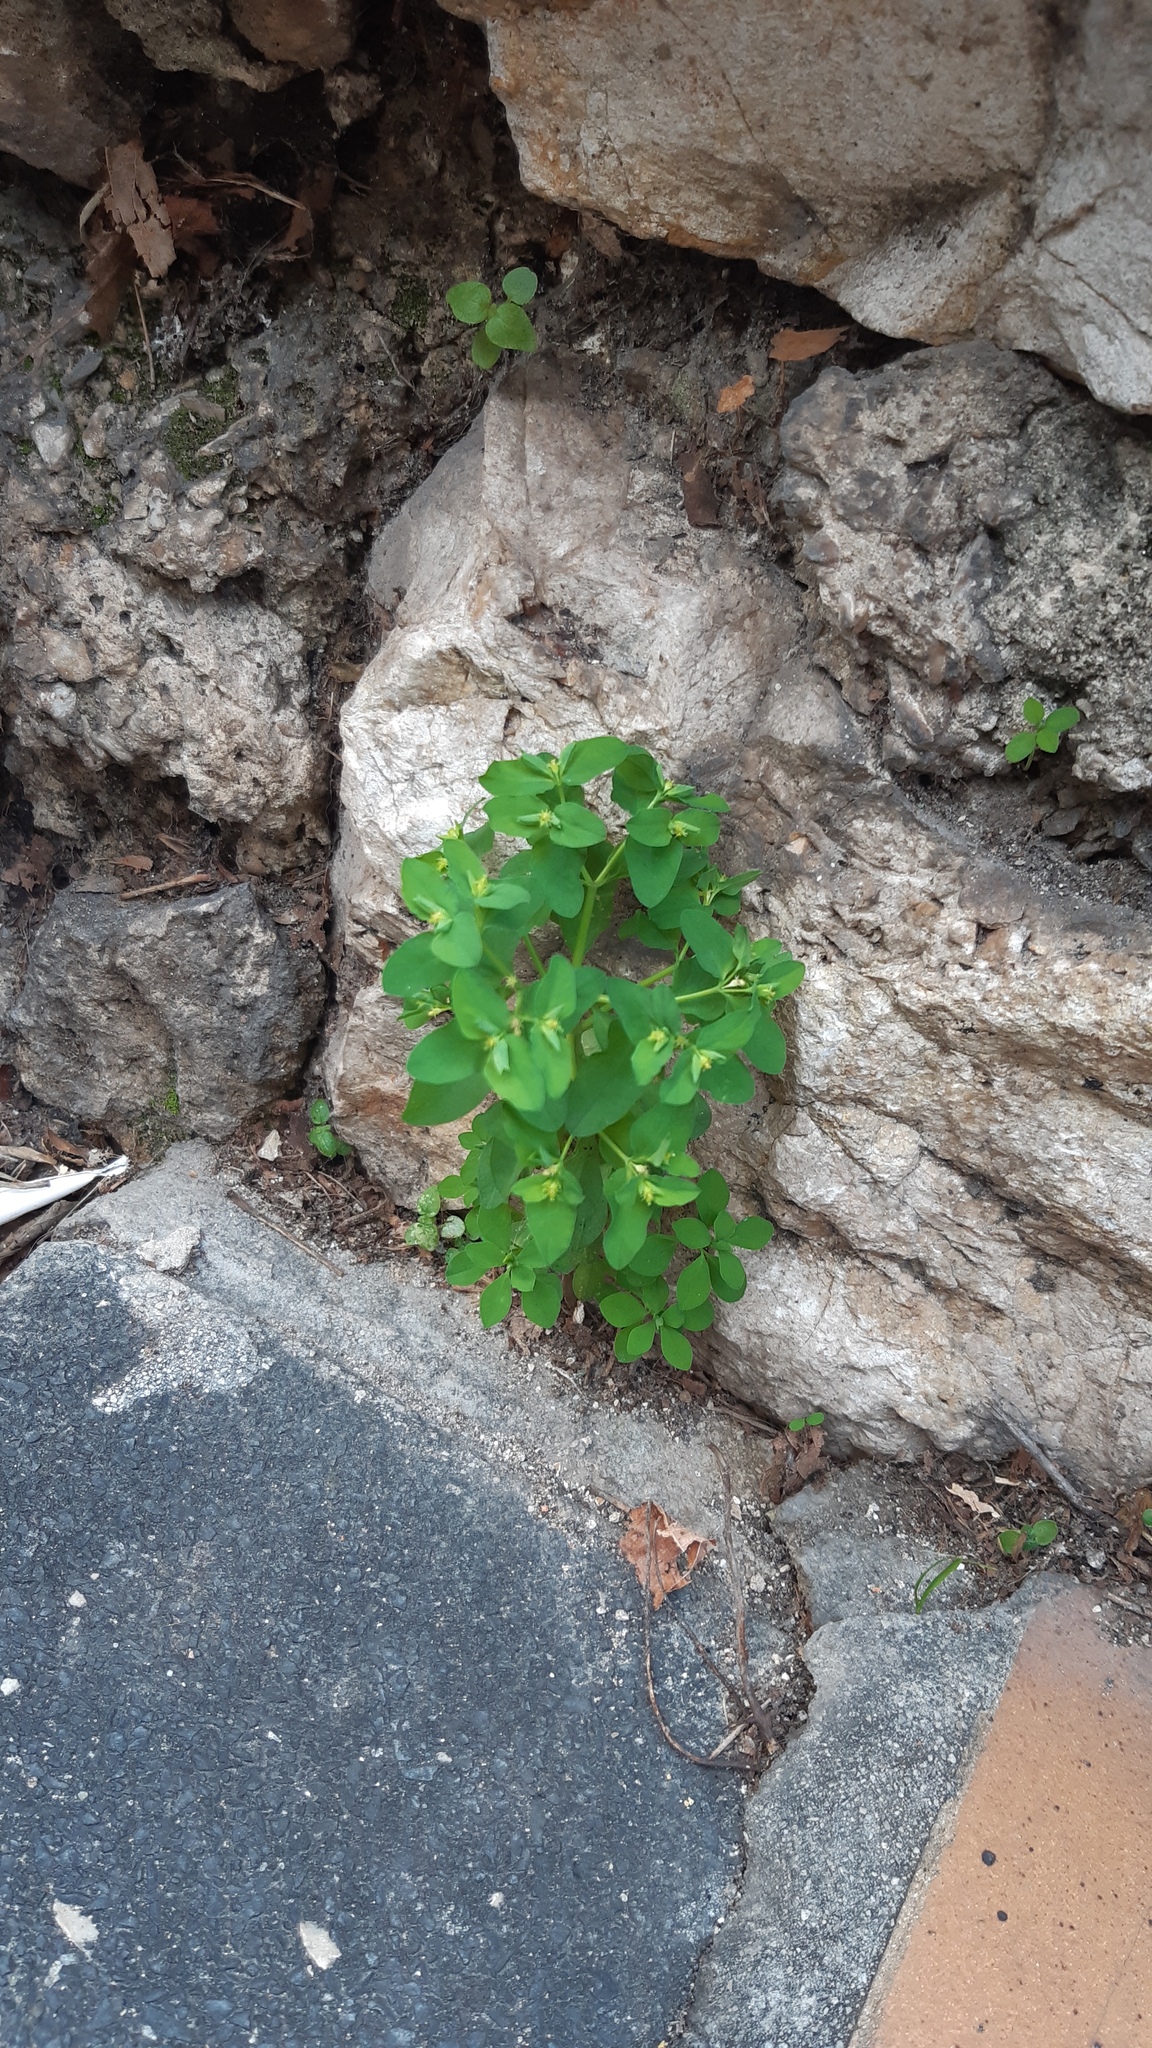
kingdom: Plantae
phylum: Tracheophyta
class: Magnoliopsida
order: Malpighiales
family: Euphorbiaceae
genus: Euphorbia
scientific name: Euphorbia peplus
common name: Petty spurge
